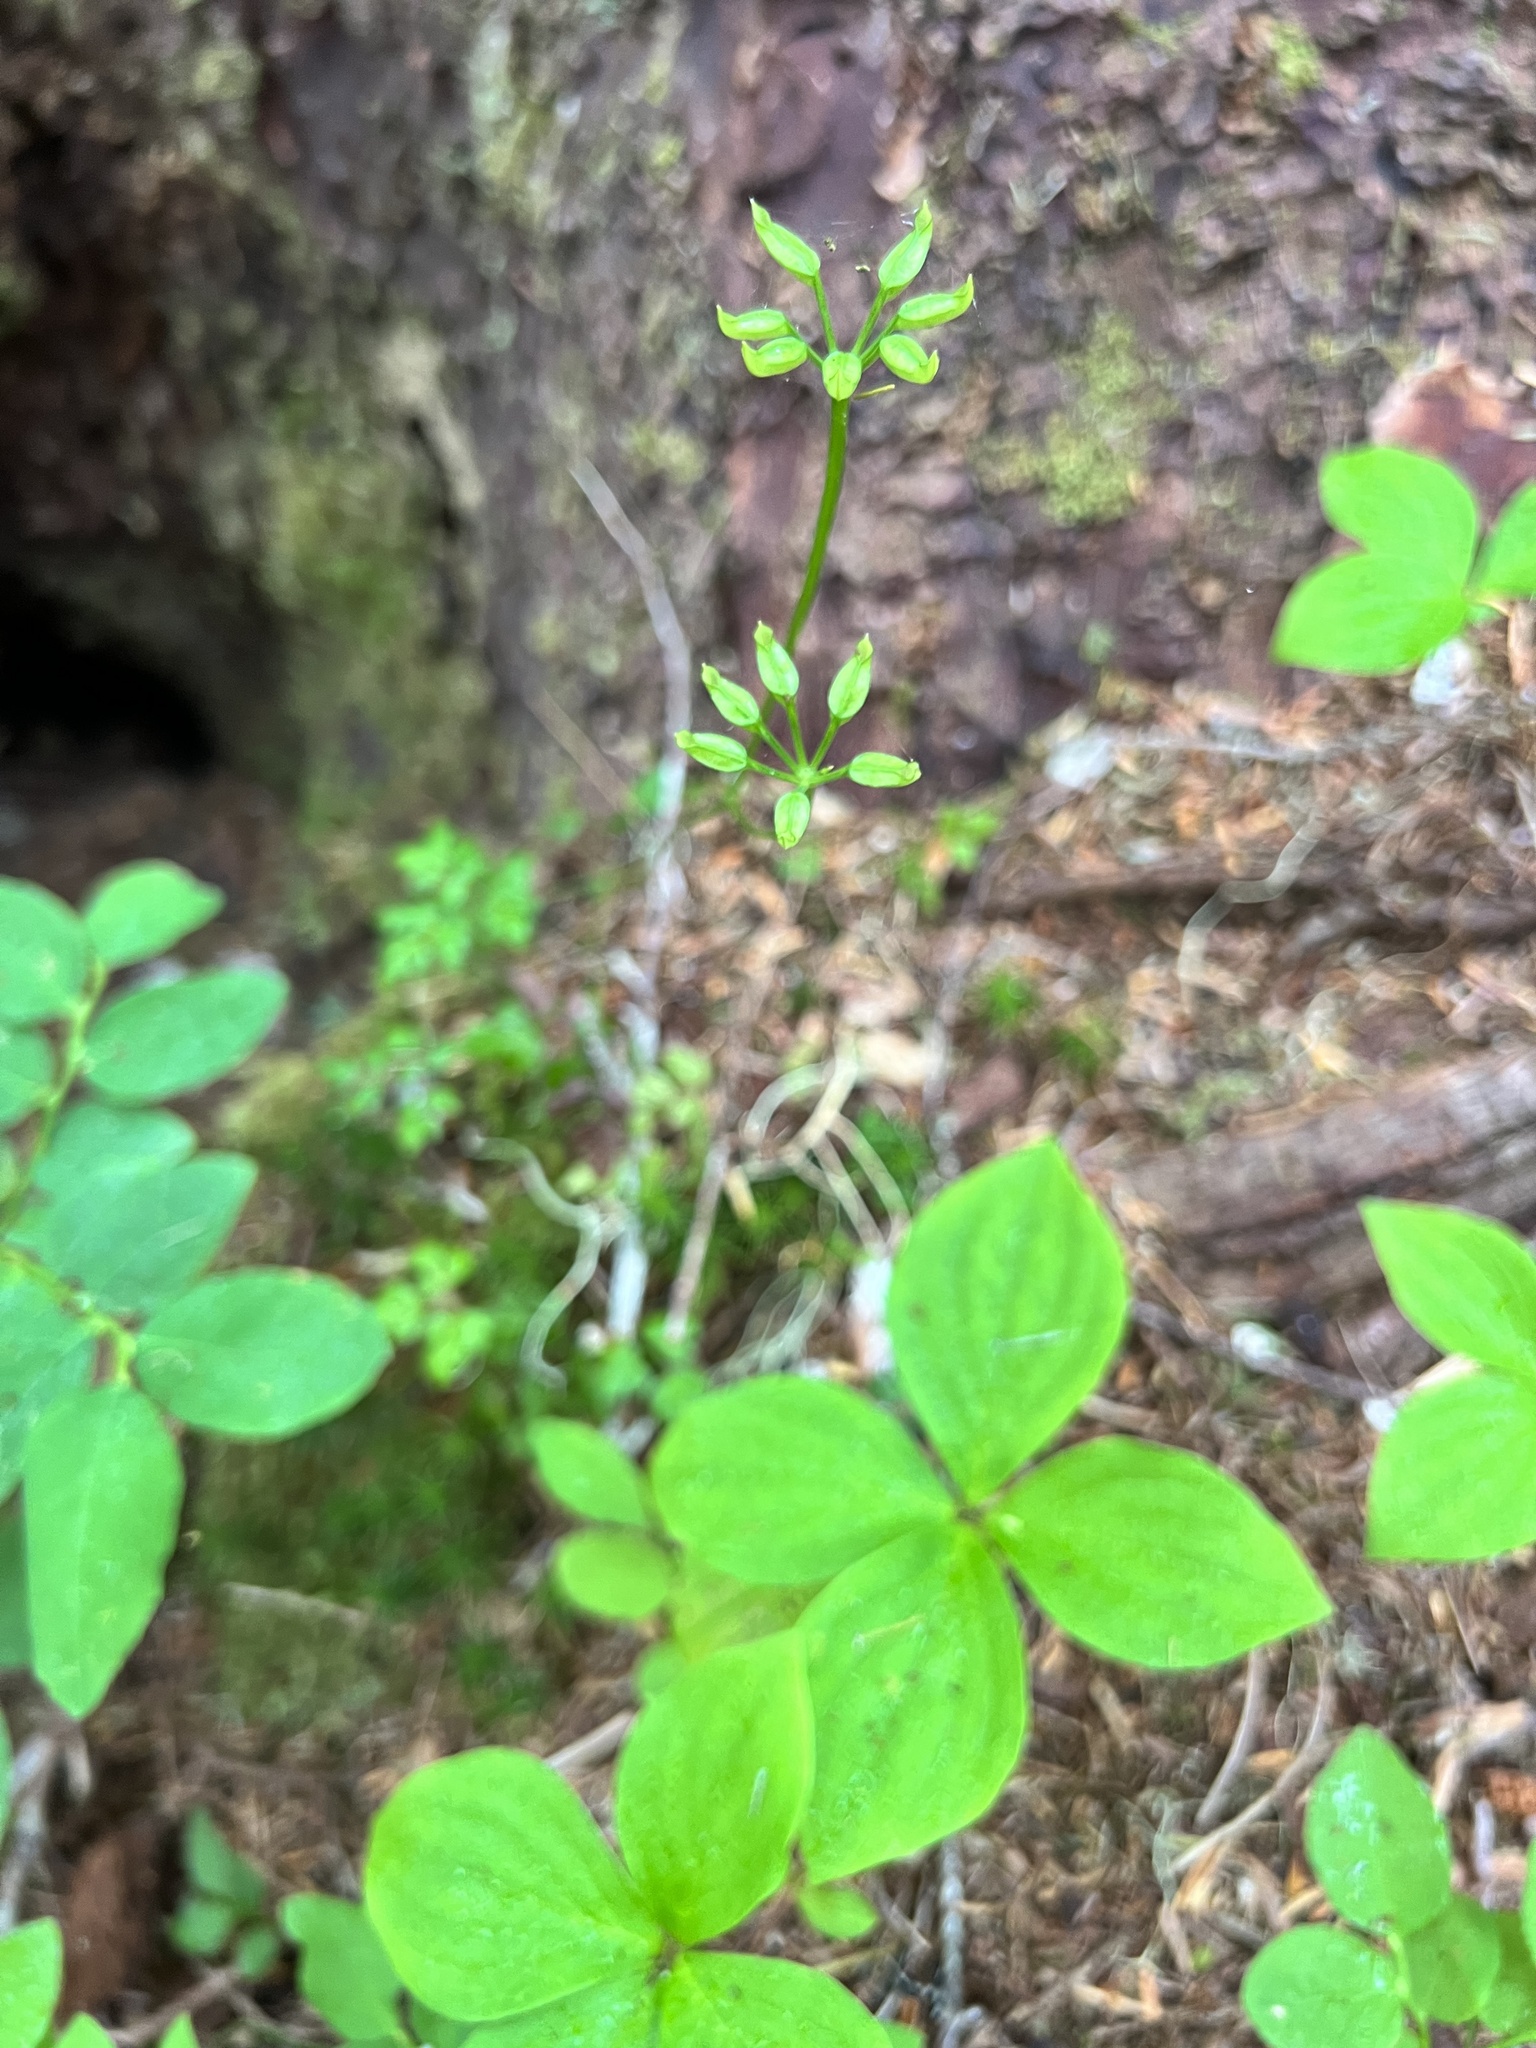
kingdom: Plantae
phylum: Tracheophyta
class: Magnoliopsida
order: Ranunculales
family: Ranunculaceae
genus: Coptis
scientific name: Coptis aspleniifolia
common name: Fern-leaved goldthread
